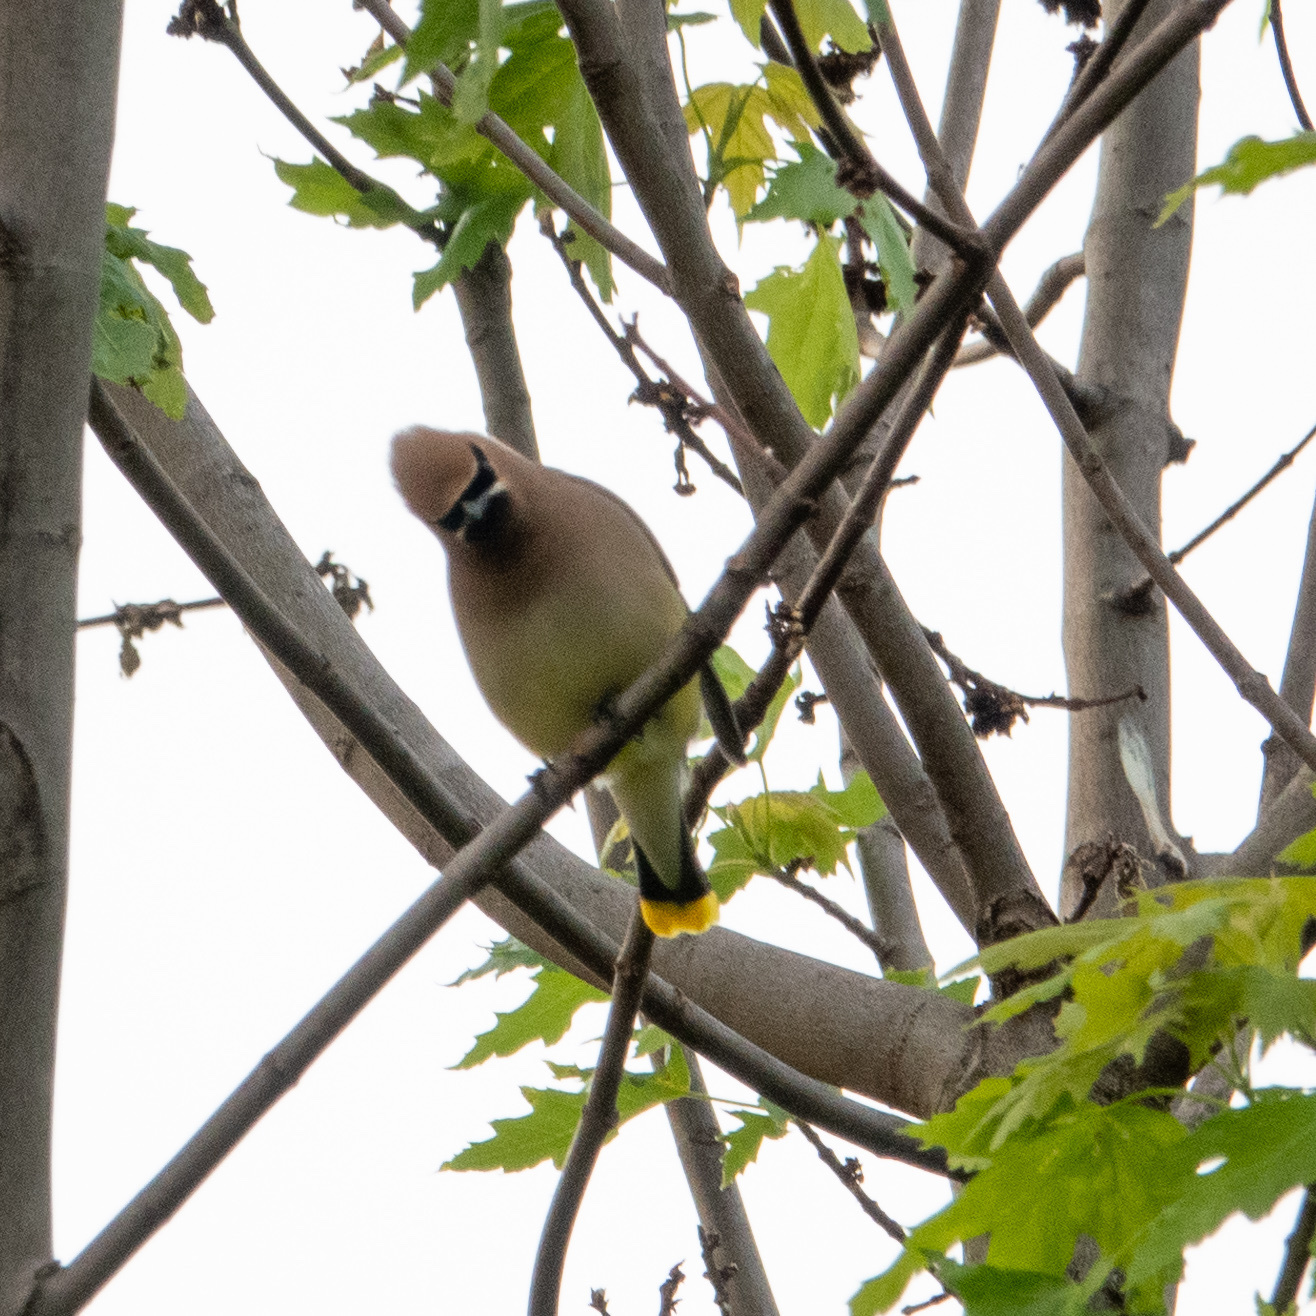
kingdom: Animalia
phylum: Chordata
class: Aves
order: Passeriformes
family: Bombycillidae
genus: Bombycilla
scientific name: Bombycilla cedrorum
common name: Cedar waxwing
